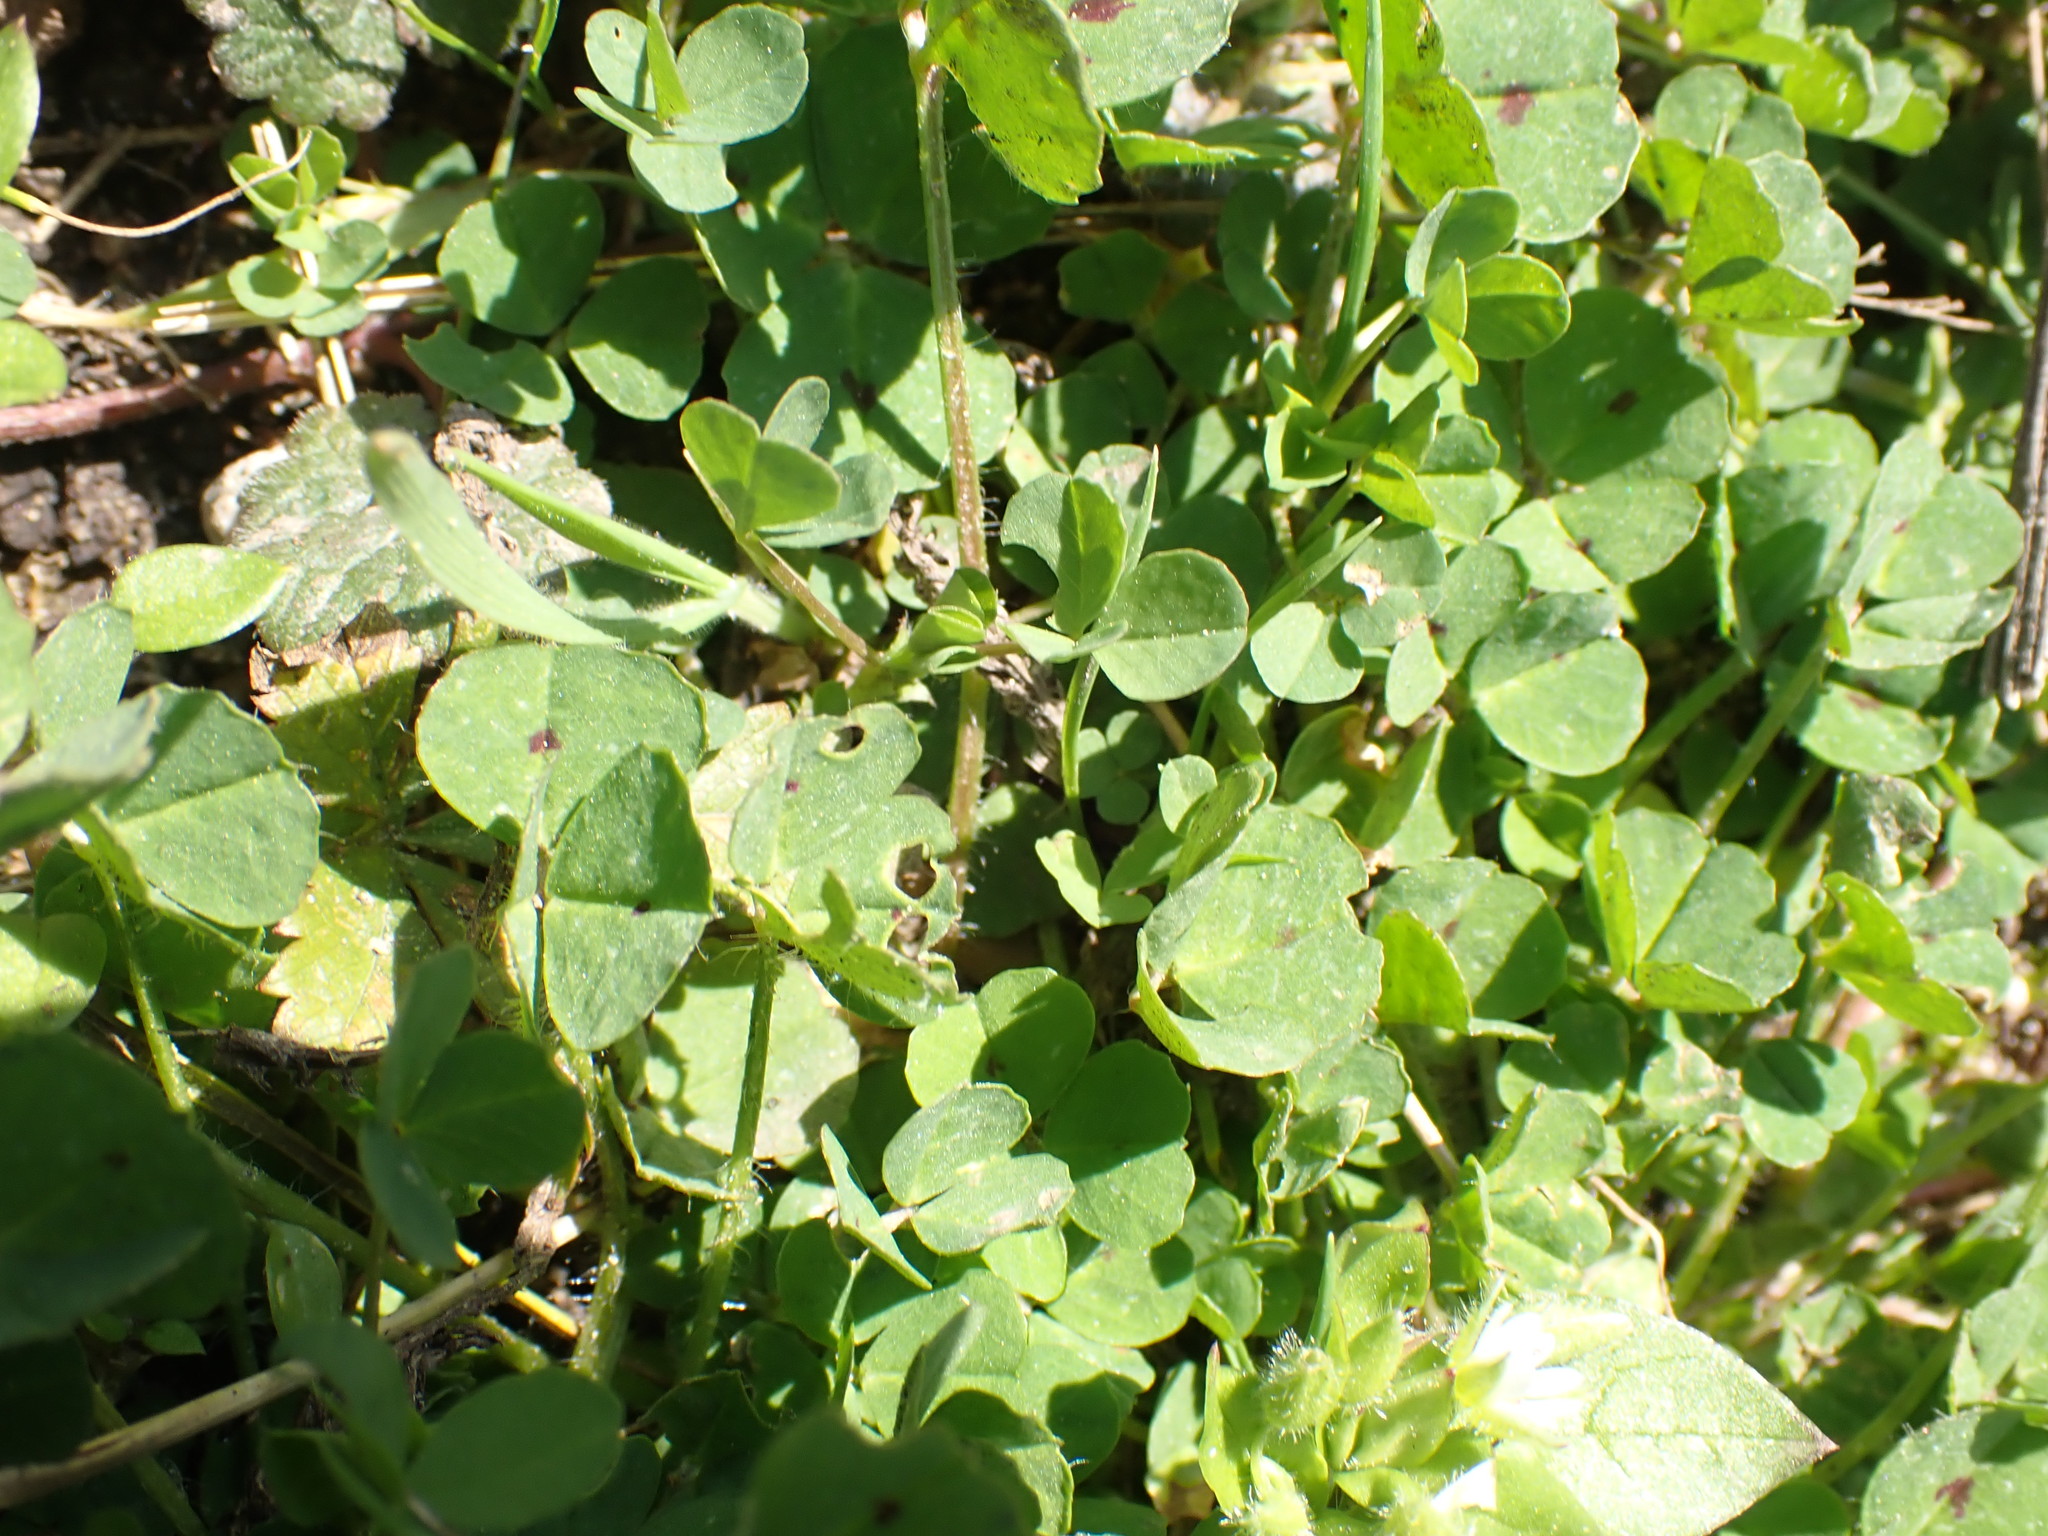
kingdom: Plantae
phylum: Tracheophyta
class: Magnoliopsida
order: Fabales
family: Fabaceae
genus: Medicago
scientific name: Medicago arabica
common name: Spotted medick
